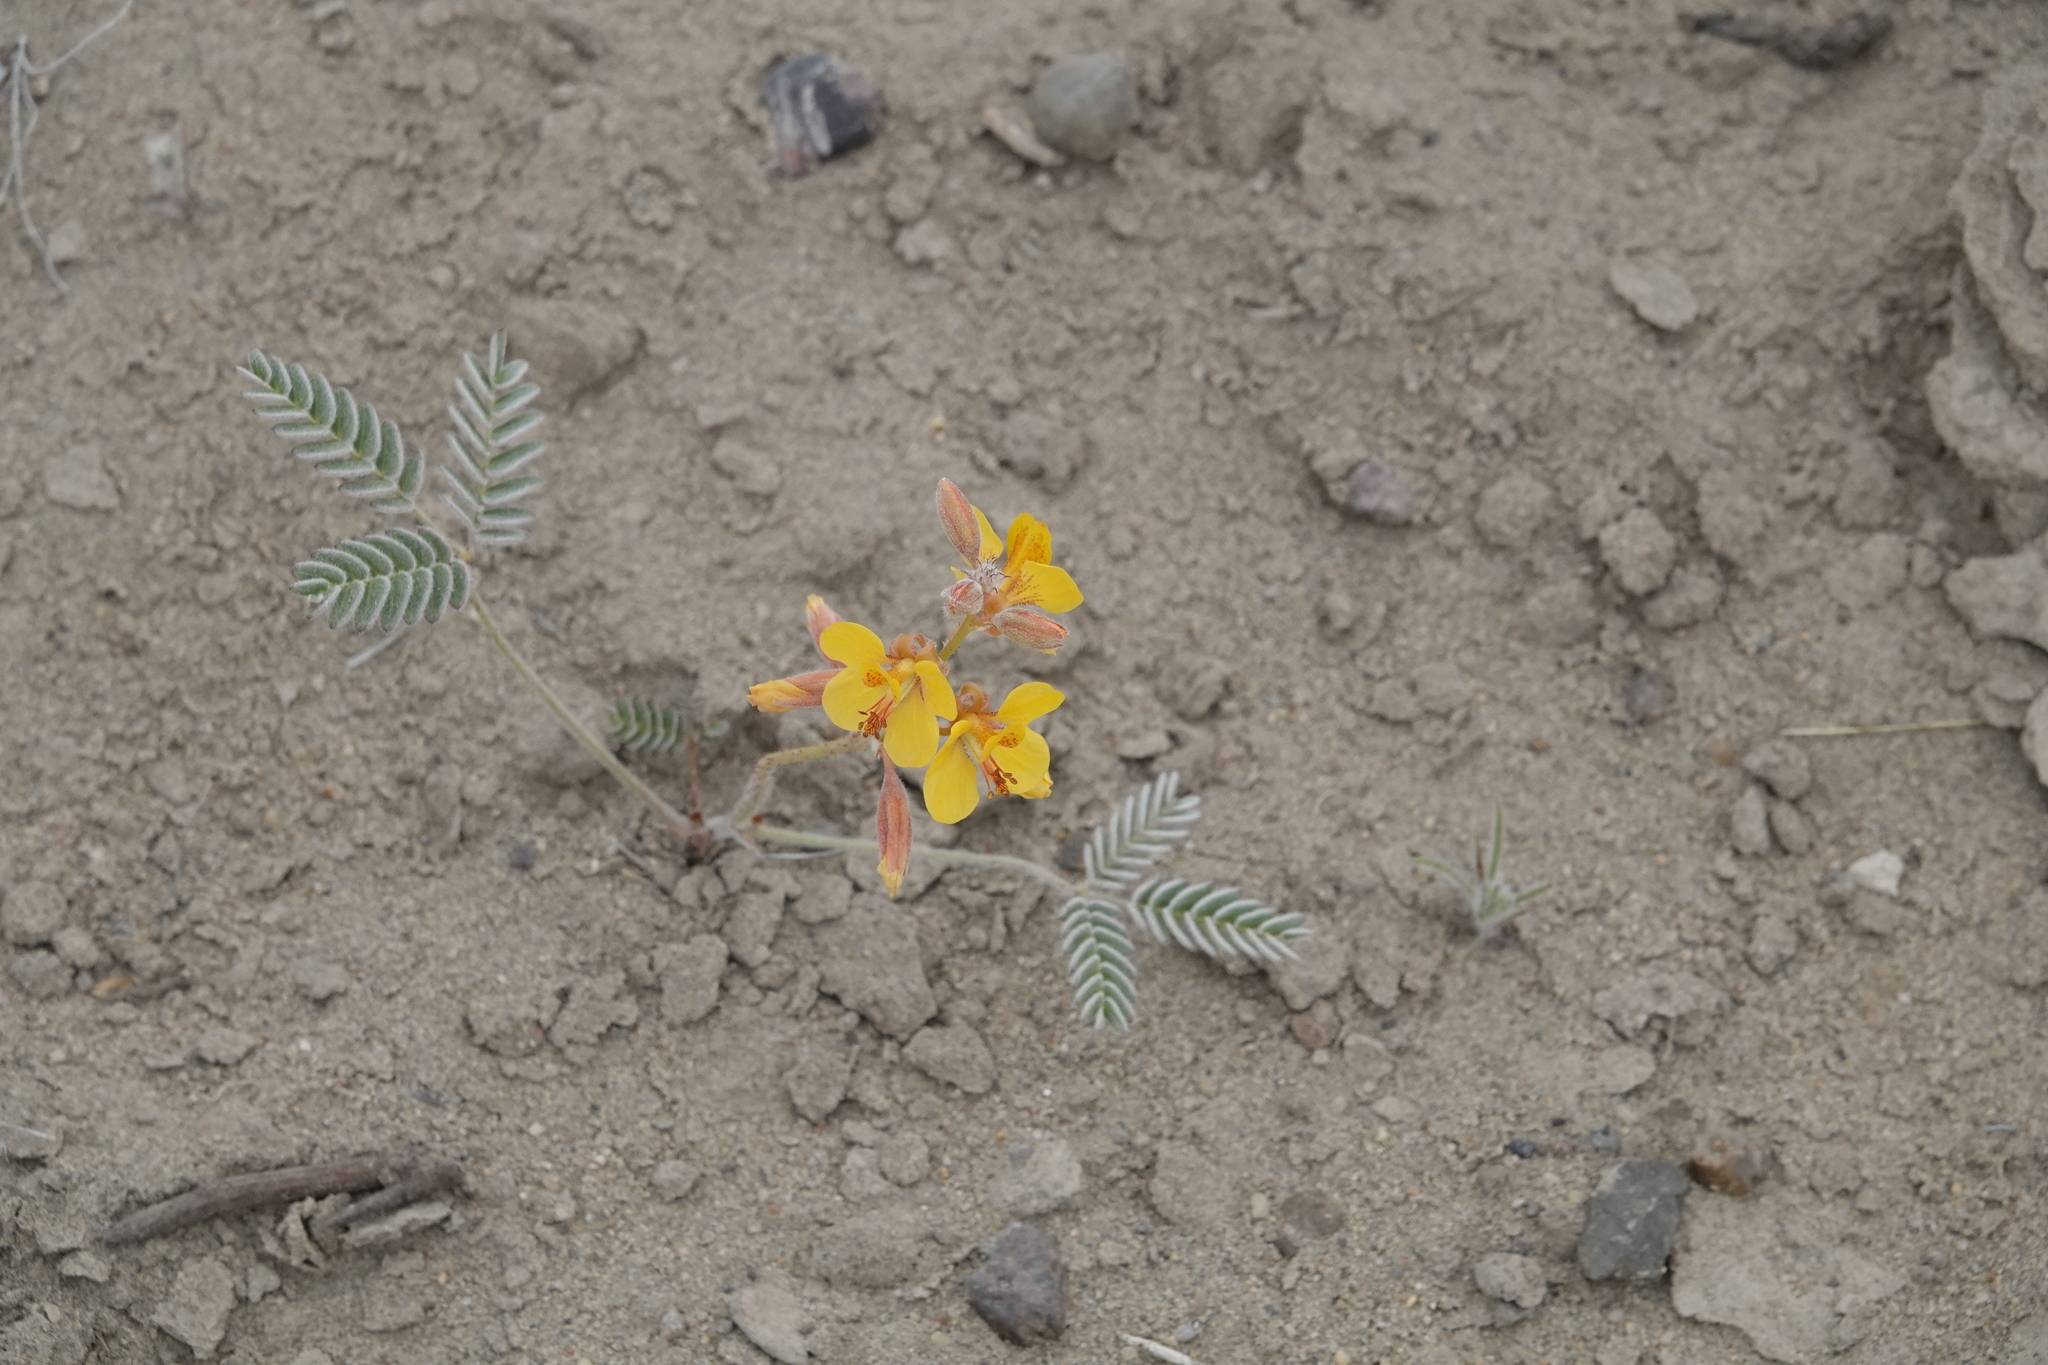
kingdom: Plantae
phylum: Tracheophyta
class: Magnoliopsida
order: Fabales
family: Fabaceae
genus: Hoffmannseggia
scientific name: Hoffmannseggia trifoliata
